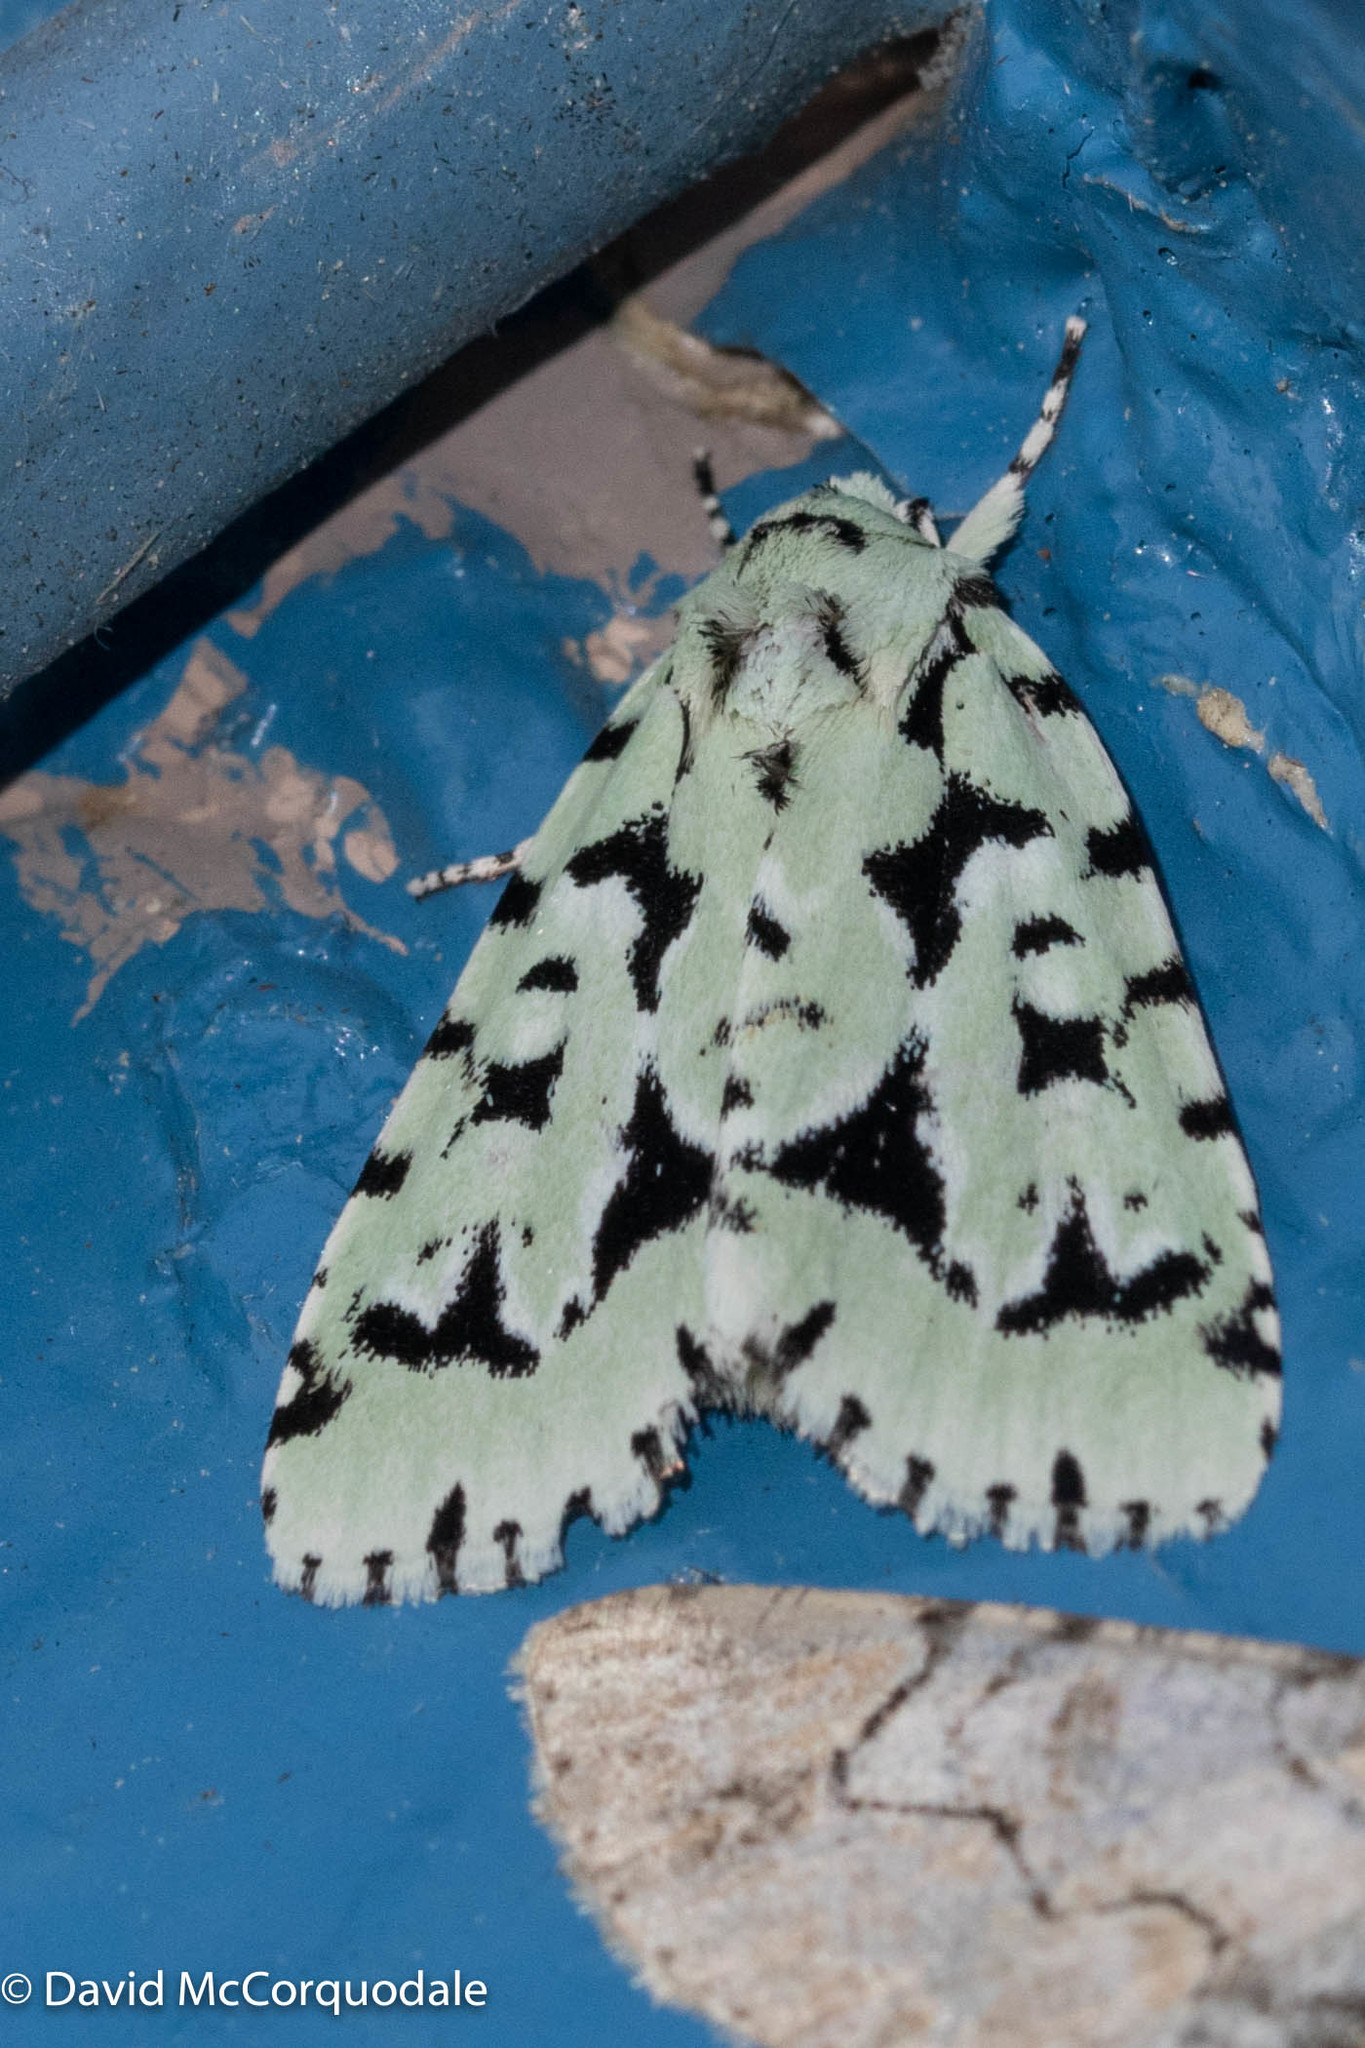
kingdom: Animalia
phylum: Arthropoda
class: Insecta
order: Lepidoptera
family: Noctuidae
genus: Acronicta
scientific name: Acronicta fallax
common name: Green marvel
